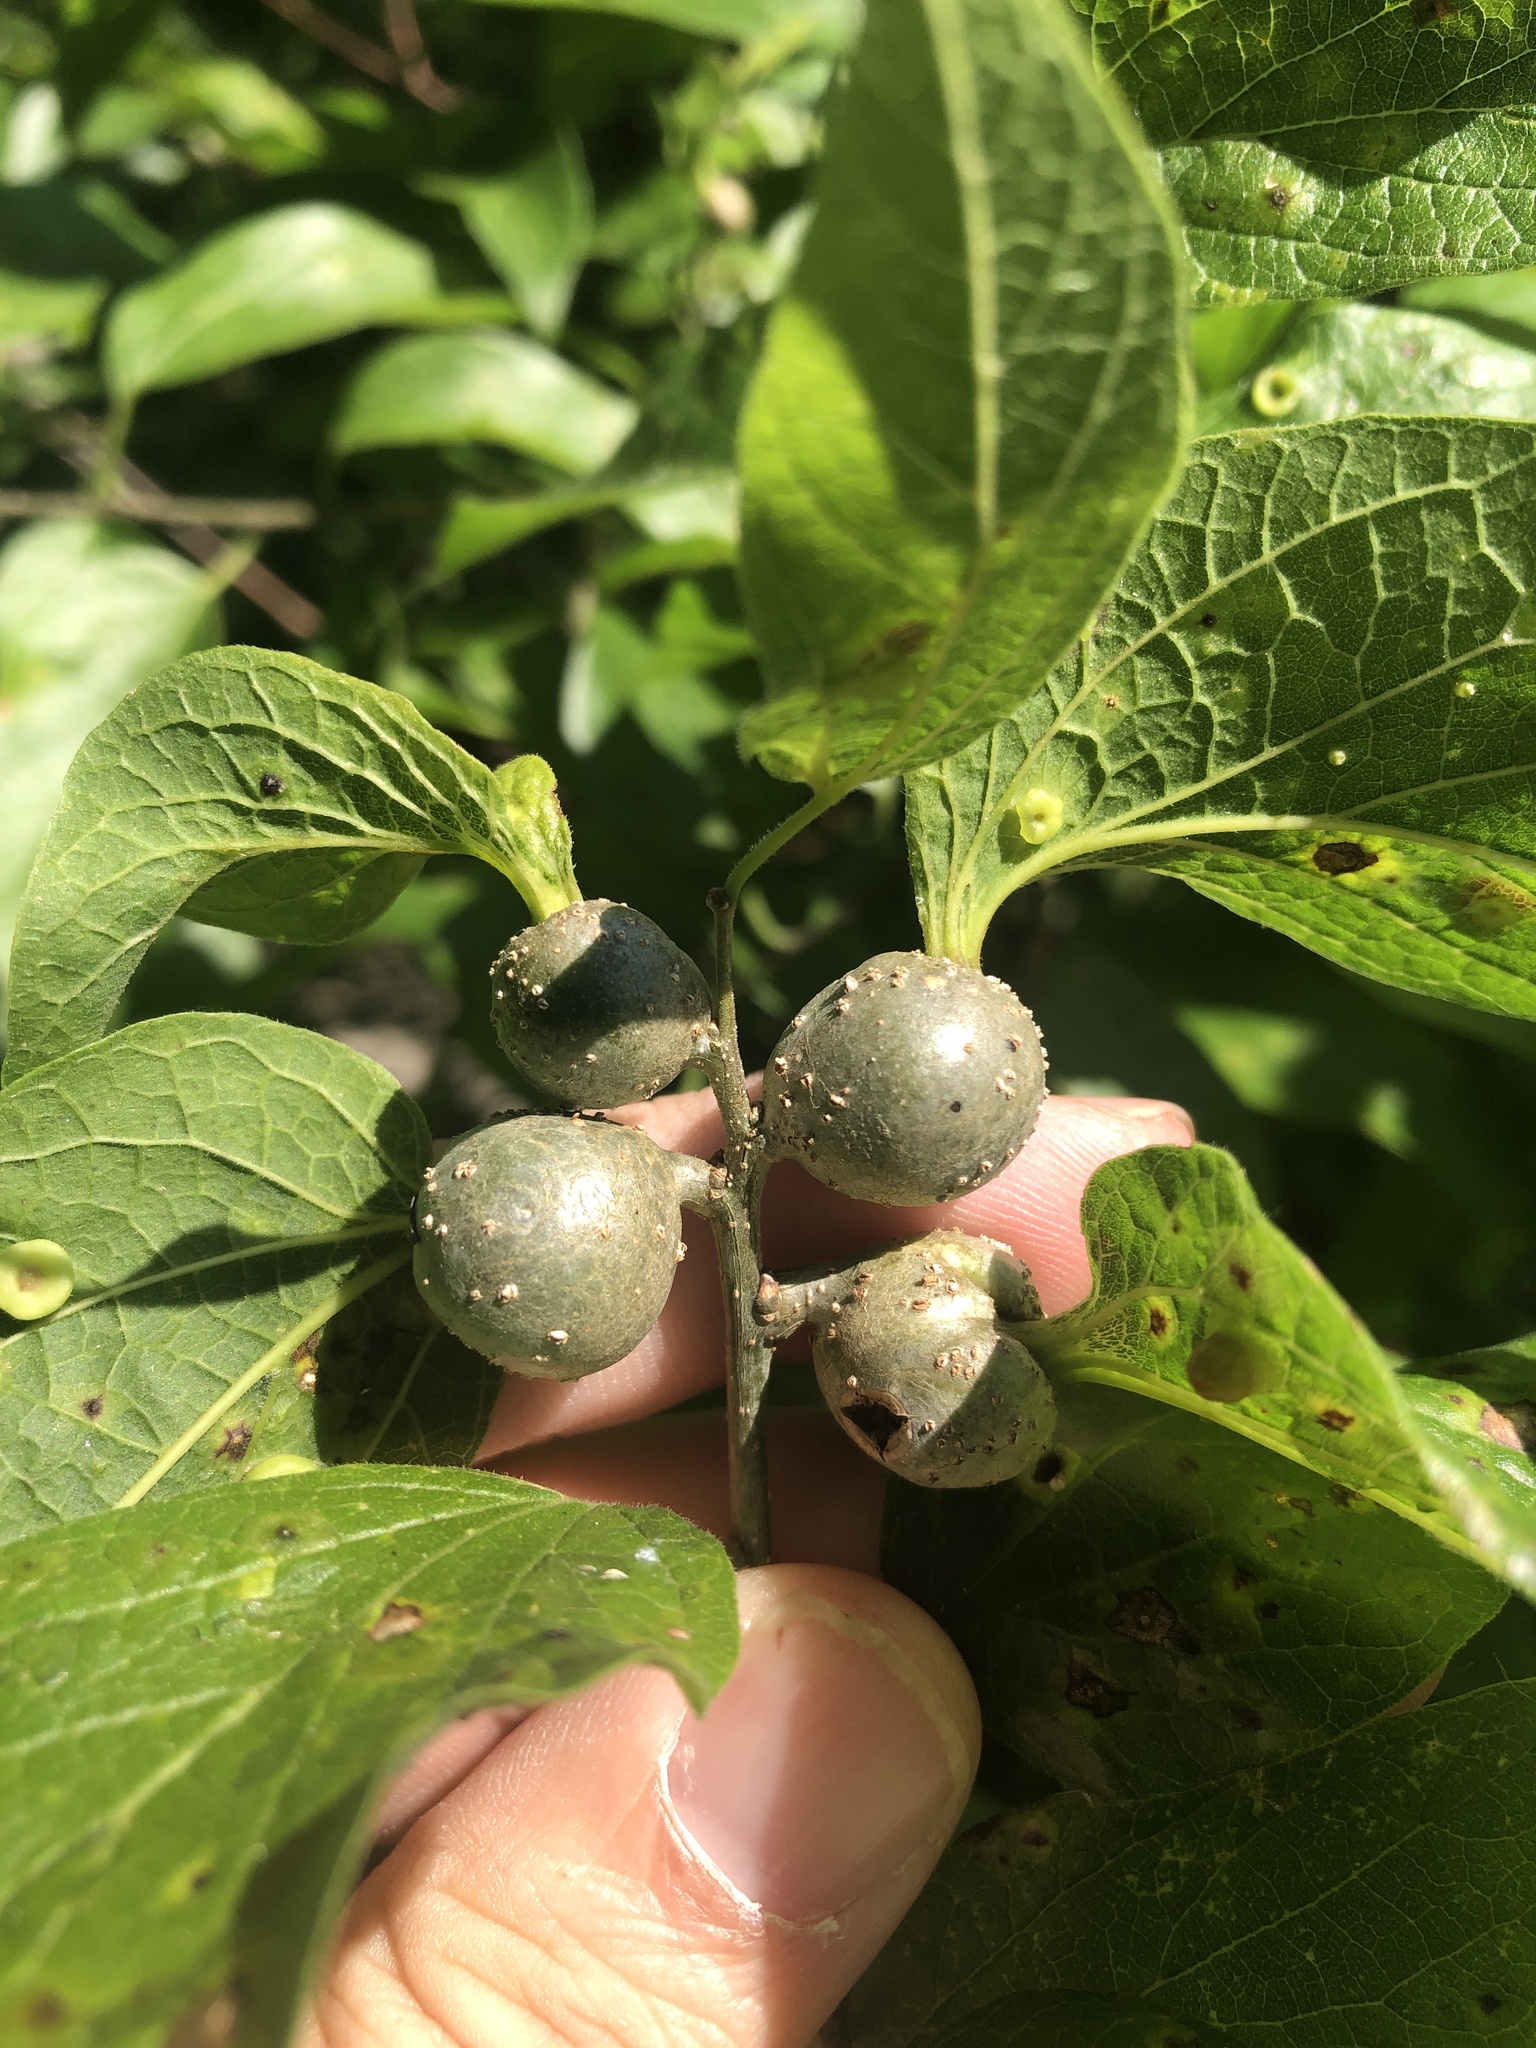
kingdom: Animalia
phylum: Arthropoda
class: Insecta
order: Hemiptera
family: Aphalaridae
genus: Pachypsylla
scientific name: Pachypsylla venusta
